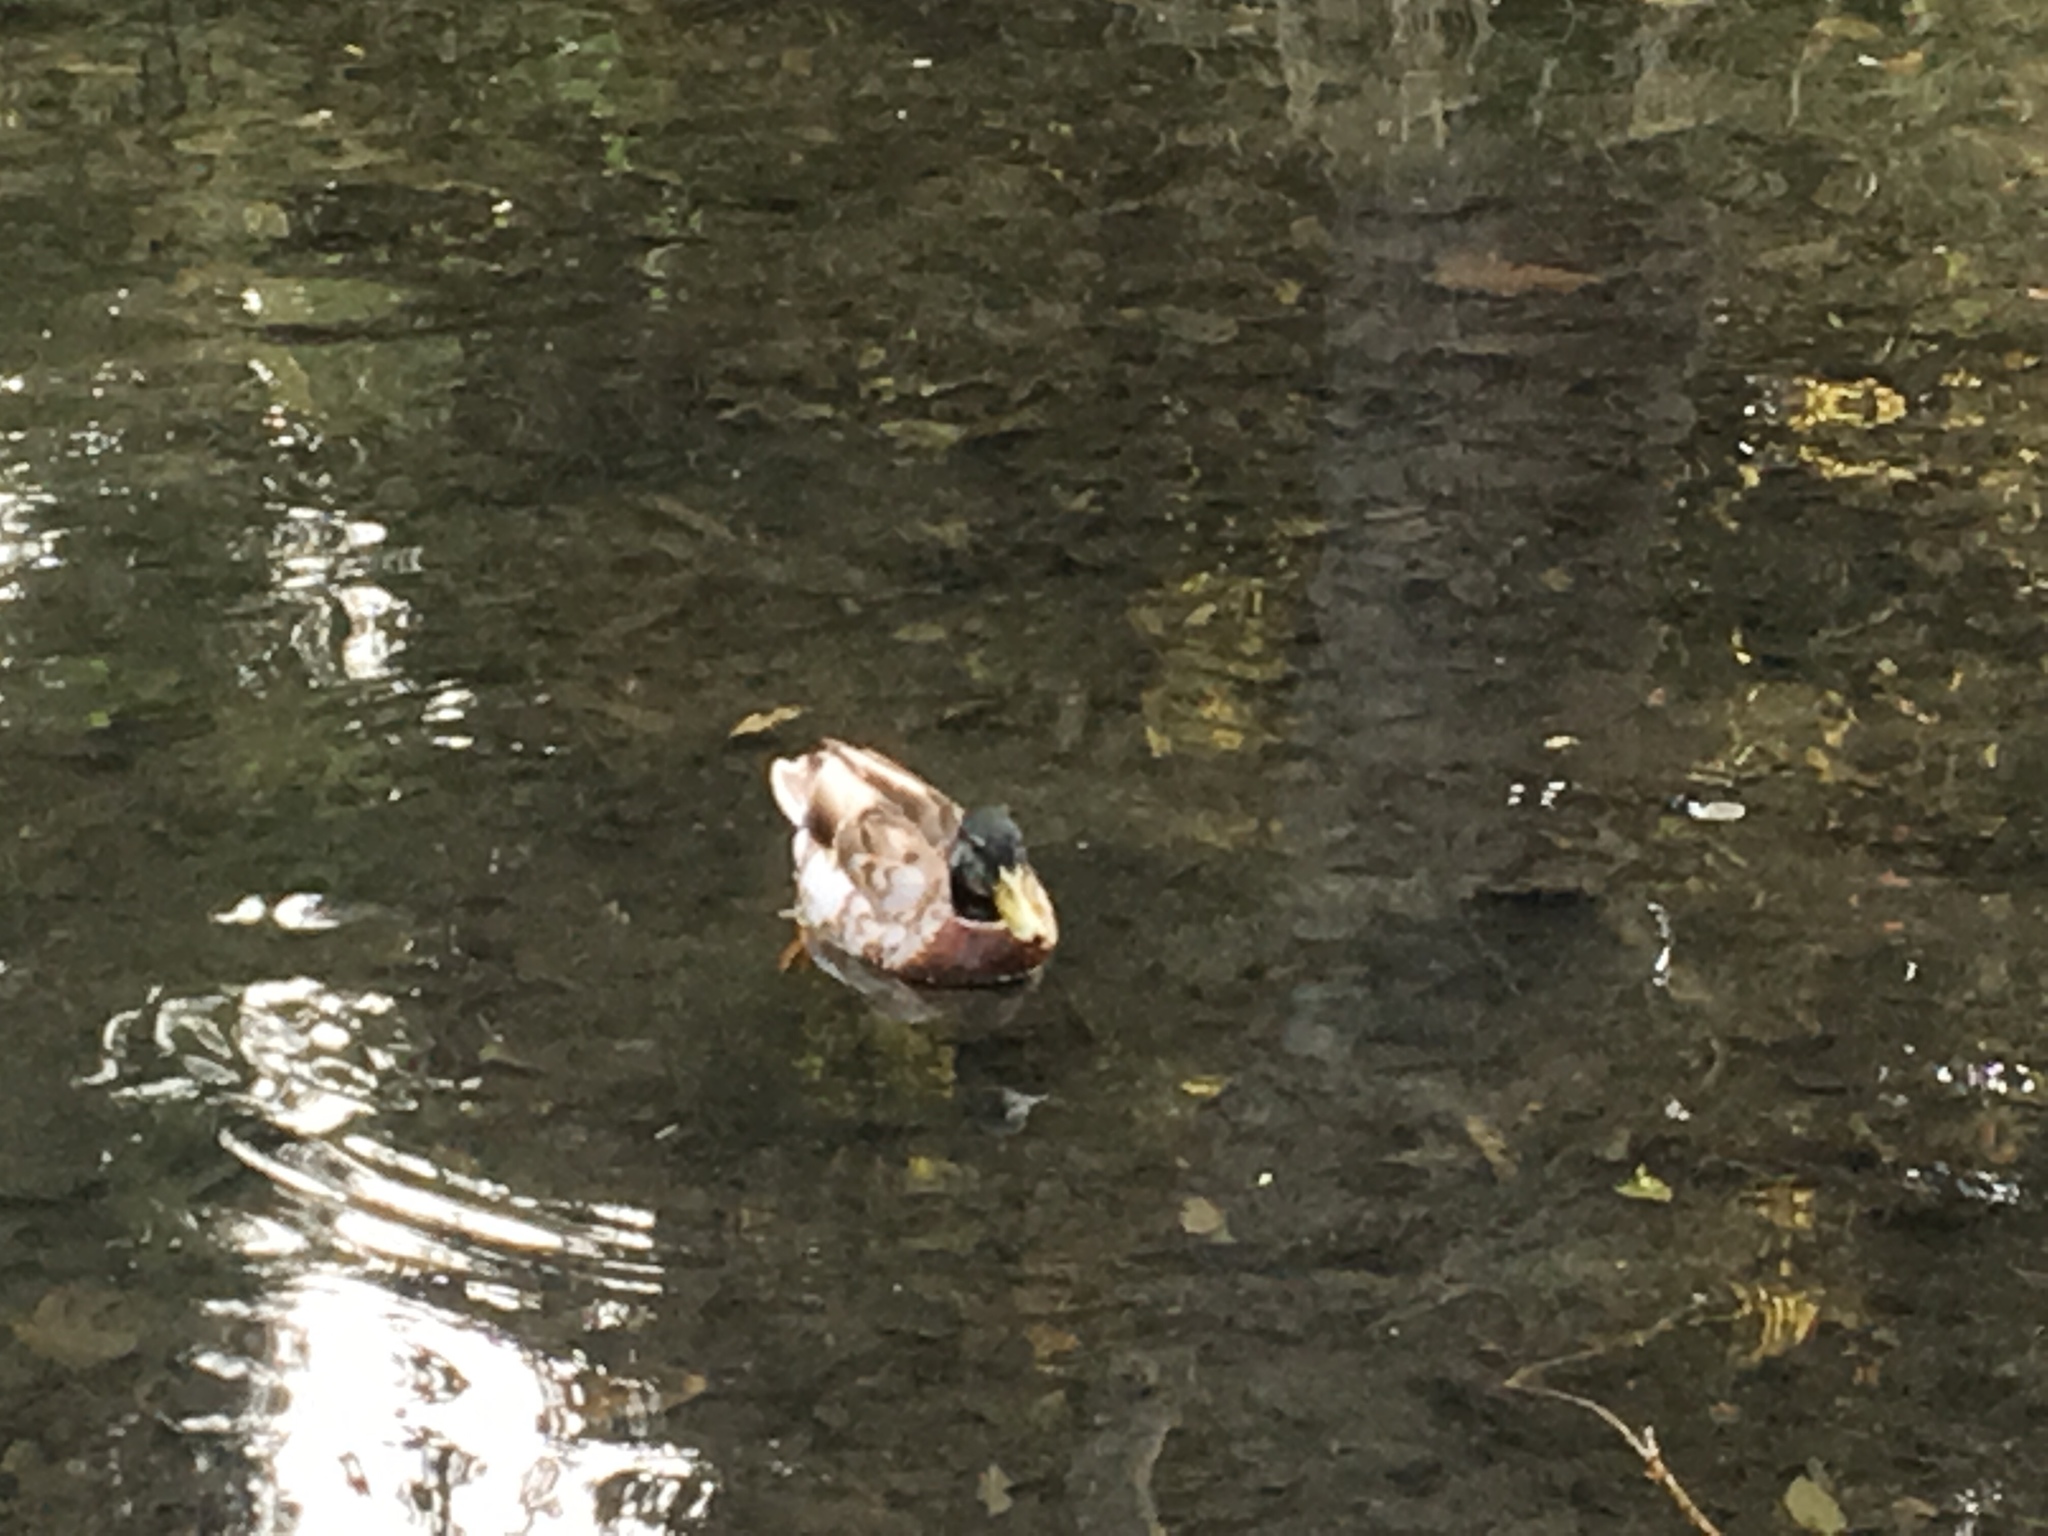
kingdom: Animalia
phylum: Chordata
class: Aves
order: Anseriformes
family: Anatidae
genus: Anas
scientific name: Anas platyrhynchos
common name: Mallard
